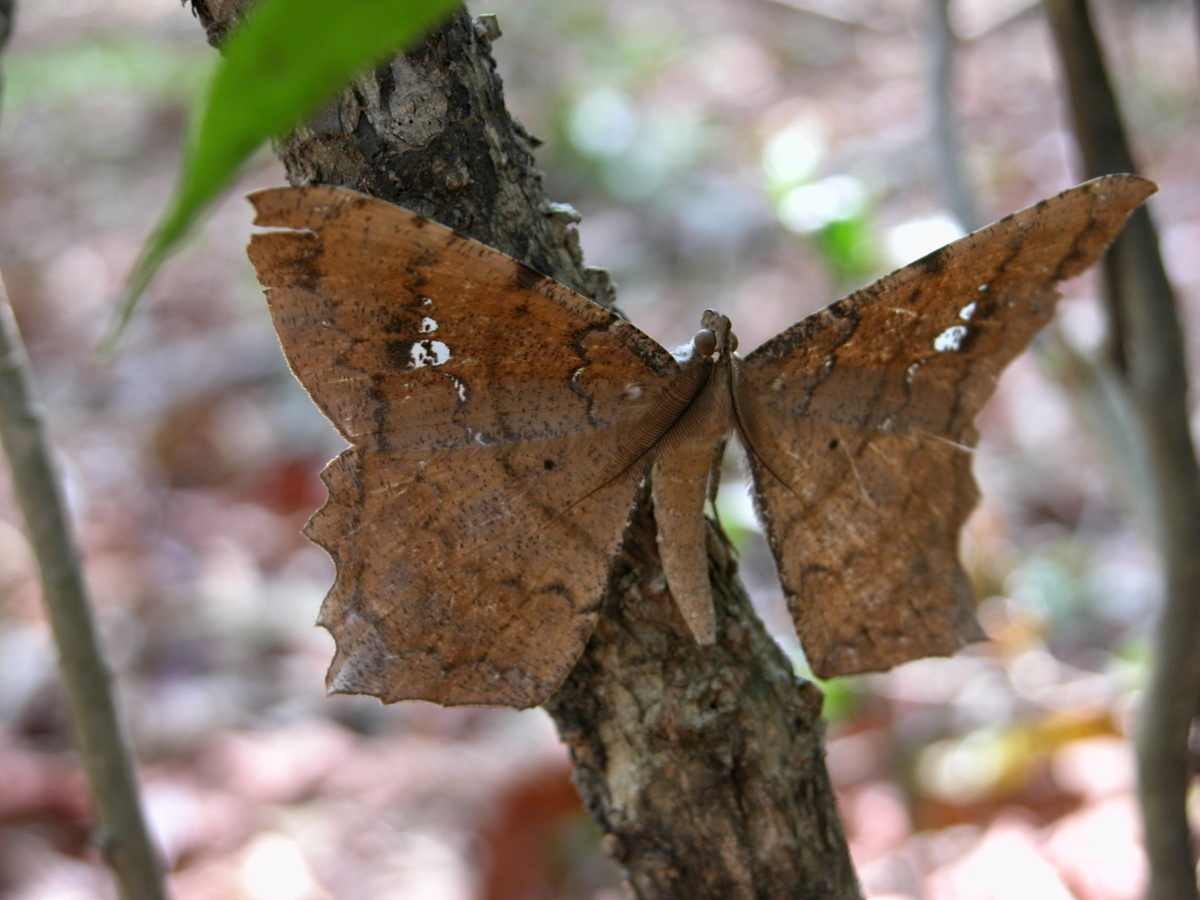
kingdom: Animalia
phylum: Arthropoda
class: Insecta
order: Lepidoptera
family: Geometridae
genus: Amblychia
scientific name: Amblychia angeronaria
